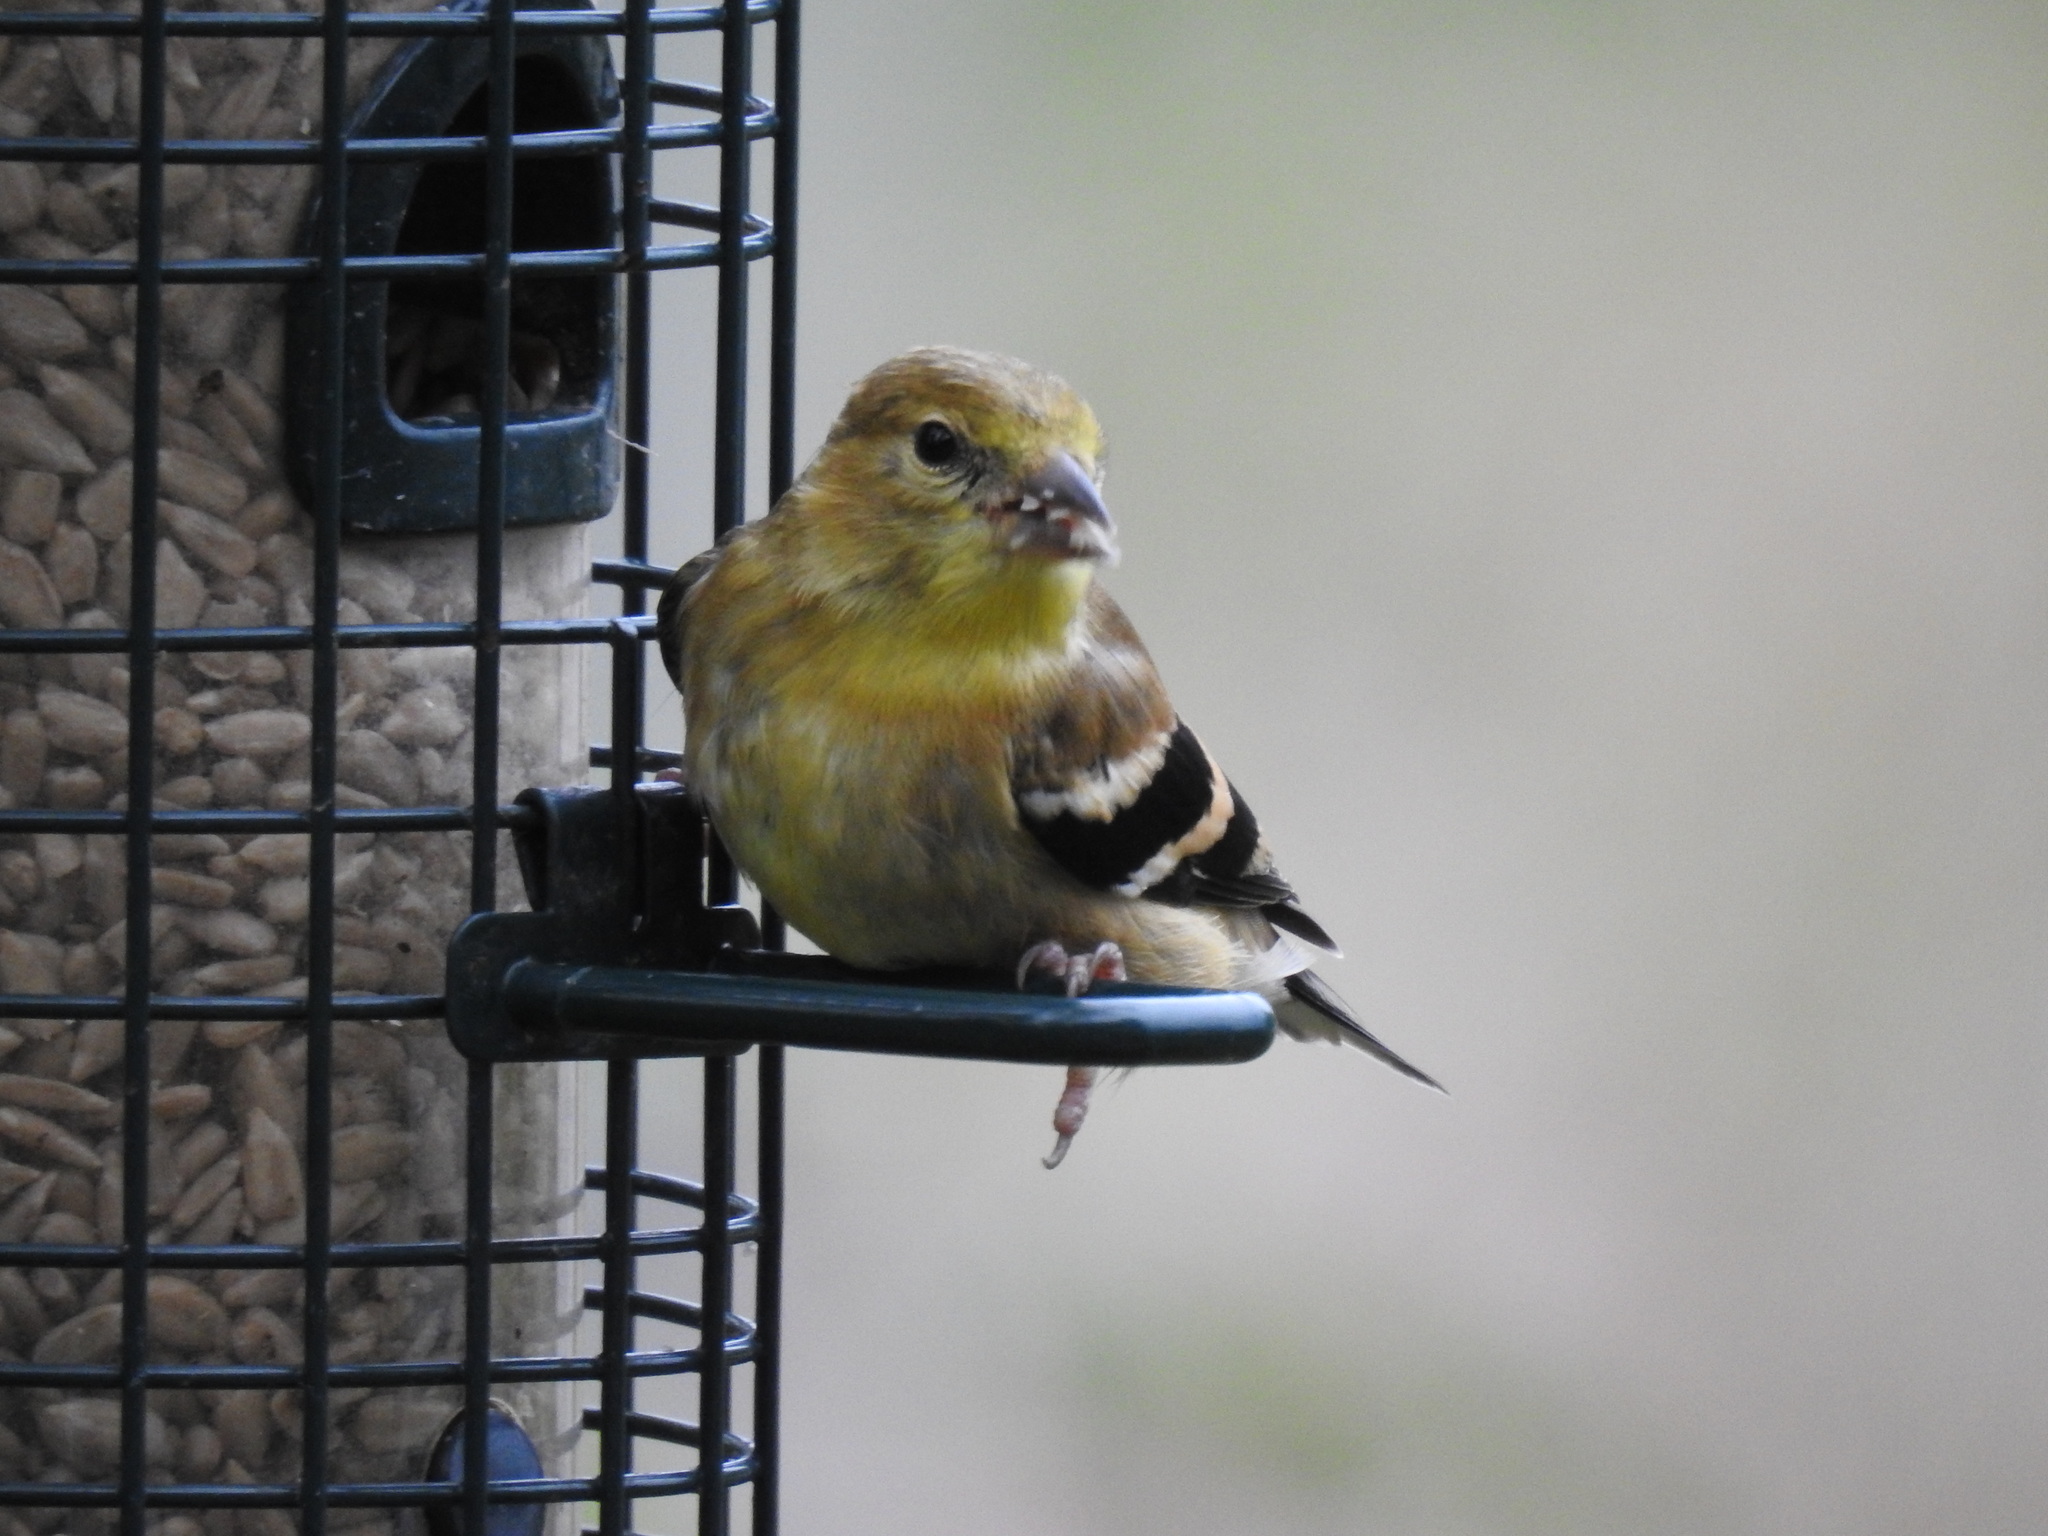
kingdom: Animalia
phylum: Chordata
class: Aves
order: Passeriformes
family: Fringillidae
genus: Spinus
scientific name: Spinus tristis
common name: American goldfinch
